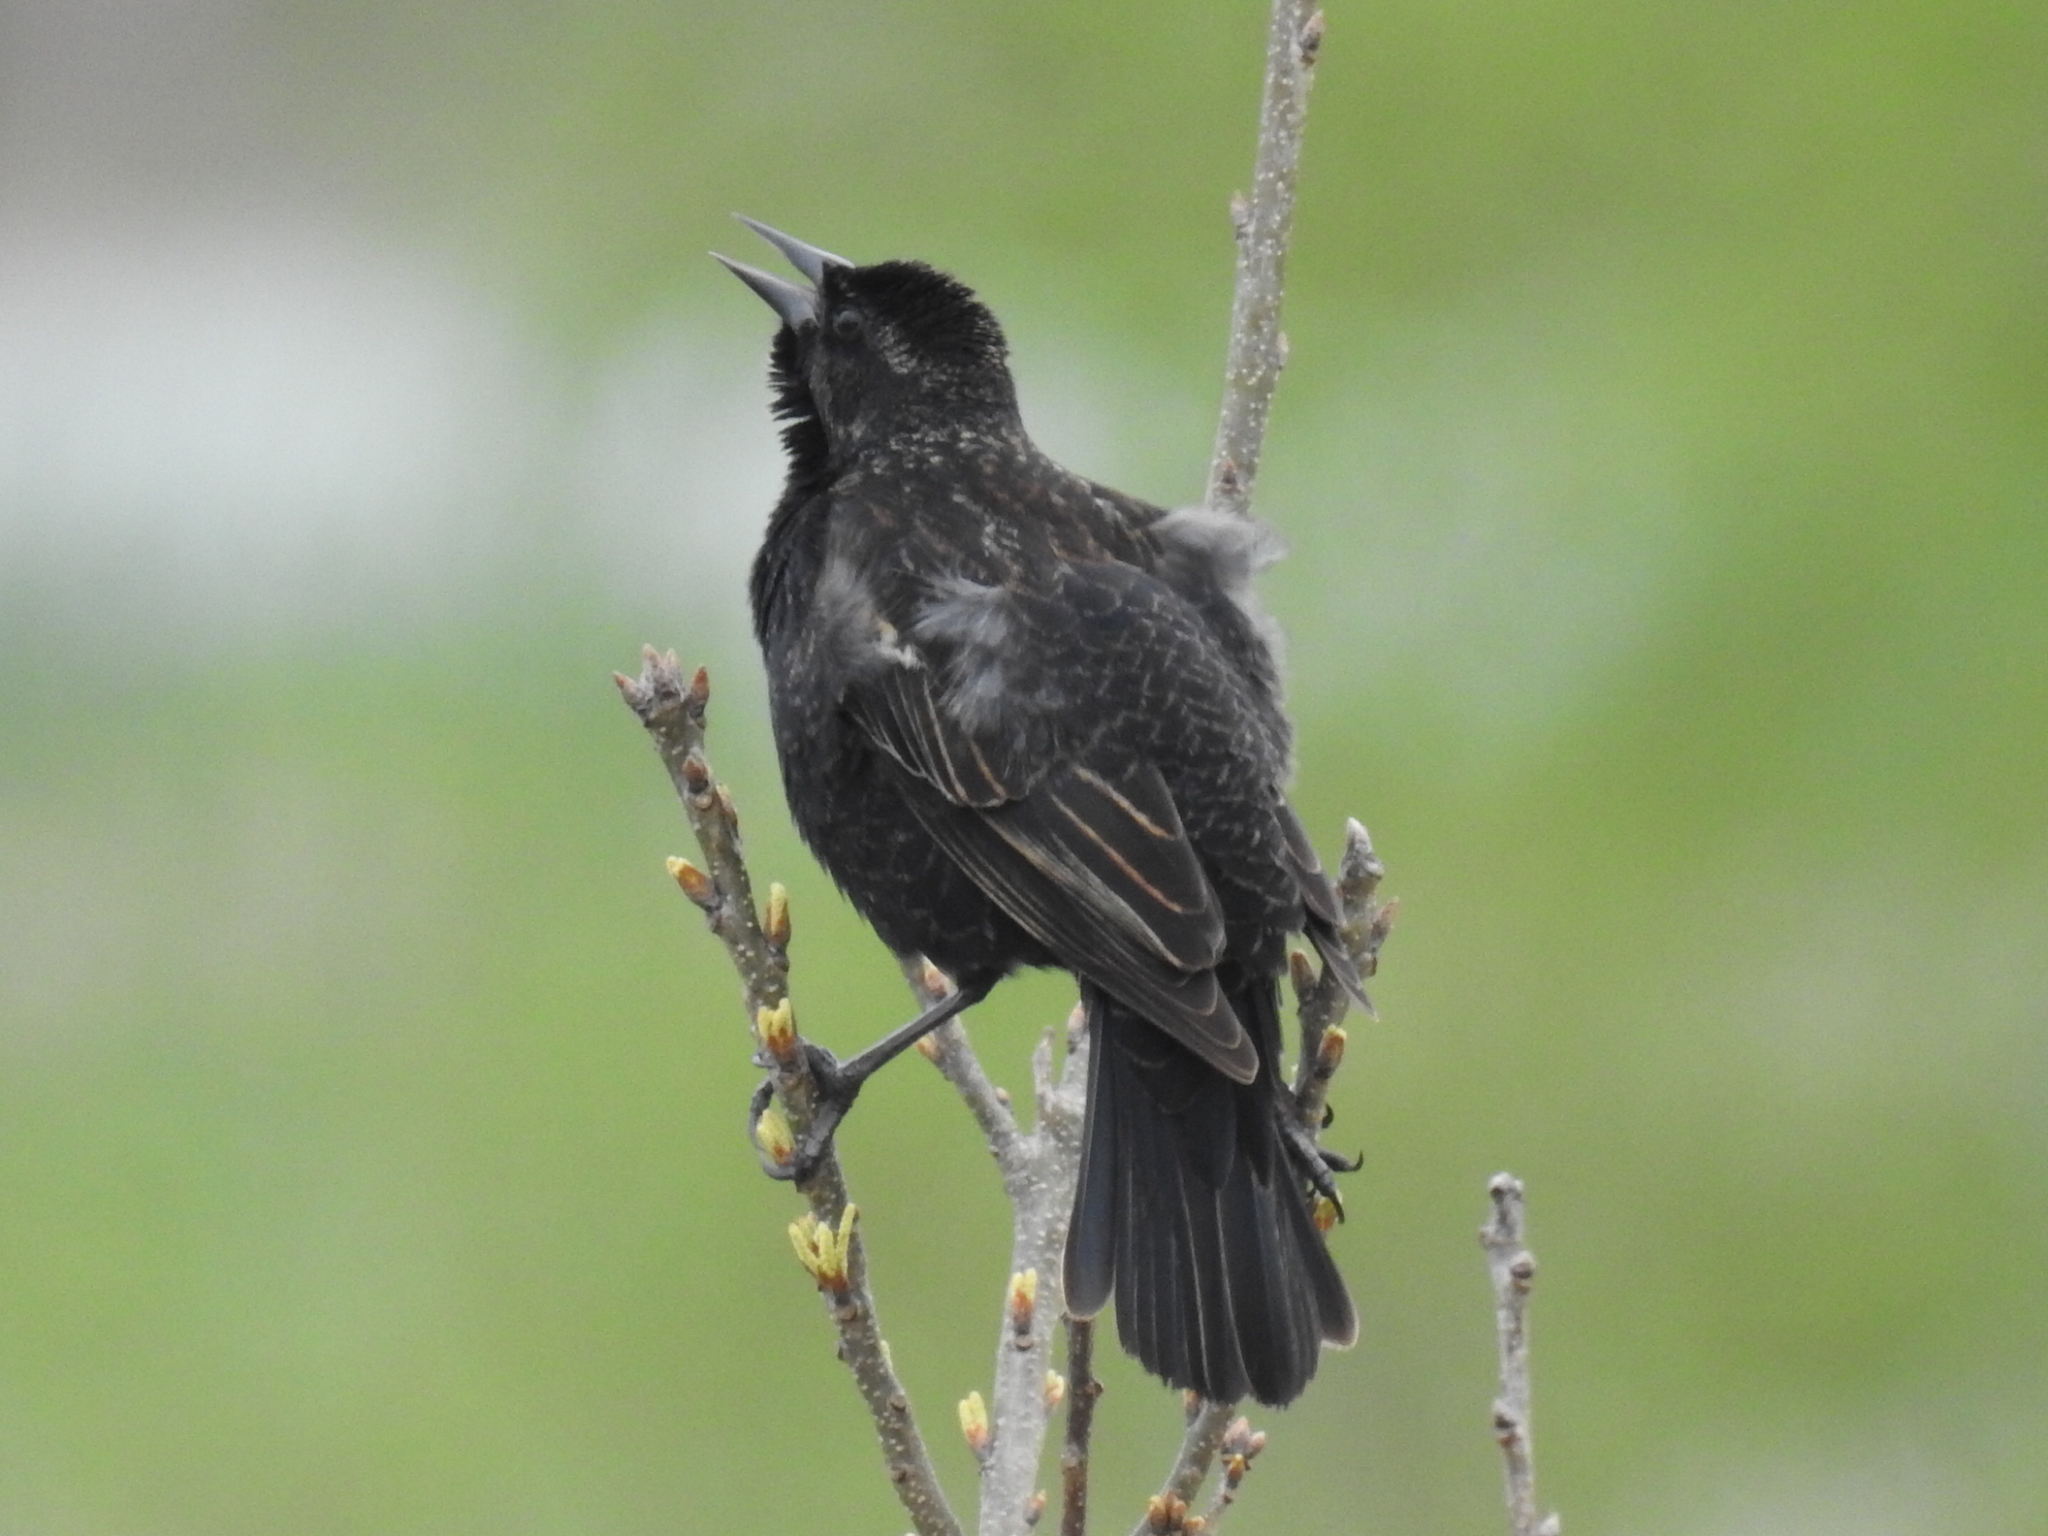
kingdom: Animalia
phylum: Chordata
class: Aves
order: Passeriformes
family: Icteridae
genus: Agelaius
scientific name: Agelaius phoeniceus
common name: Red-winged blackbird
